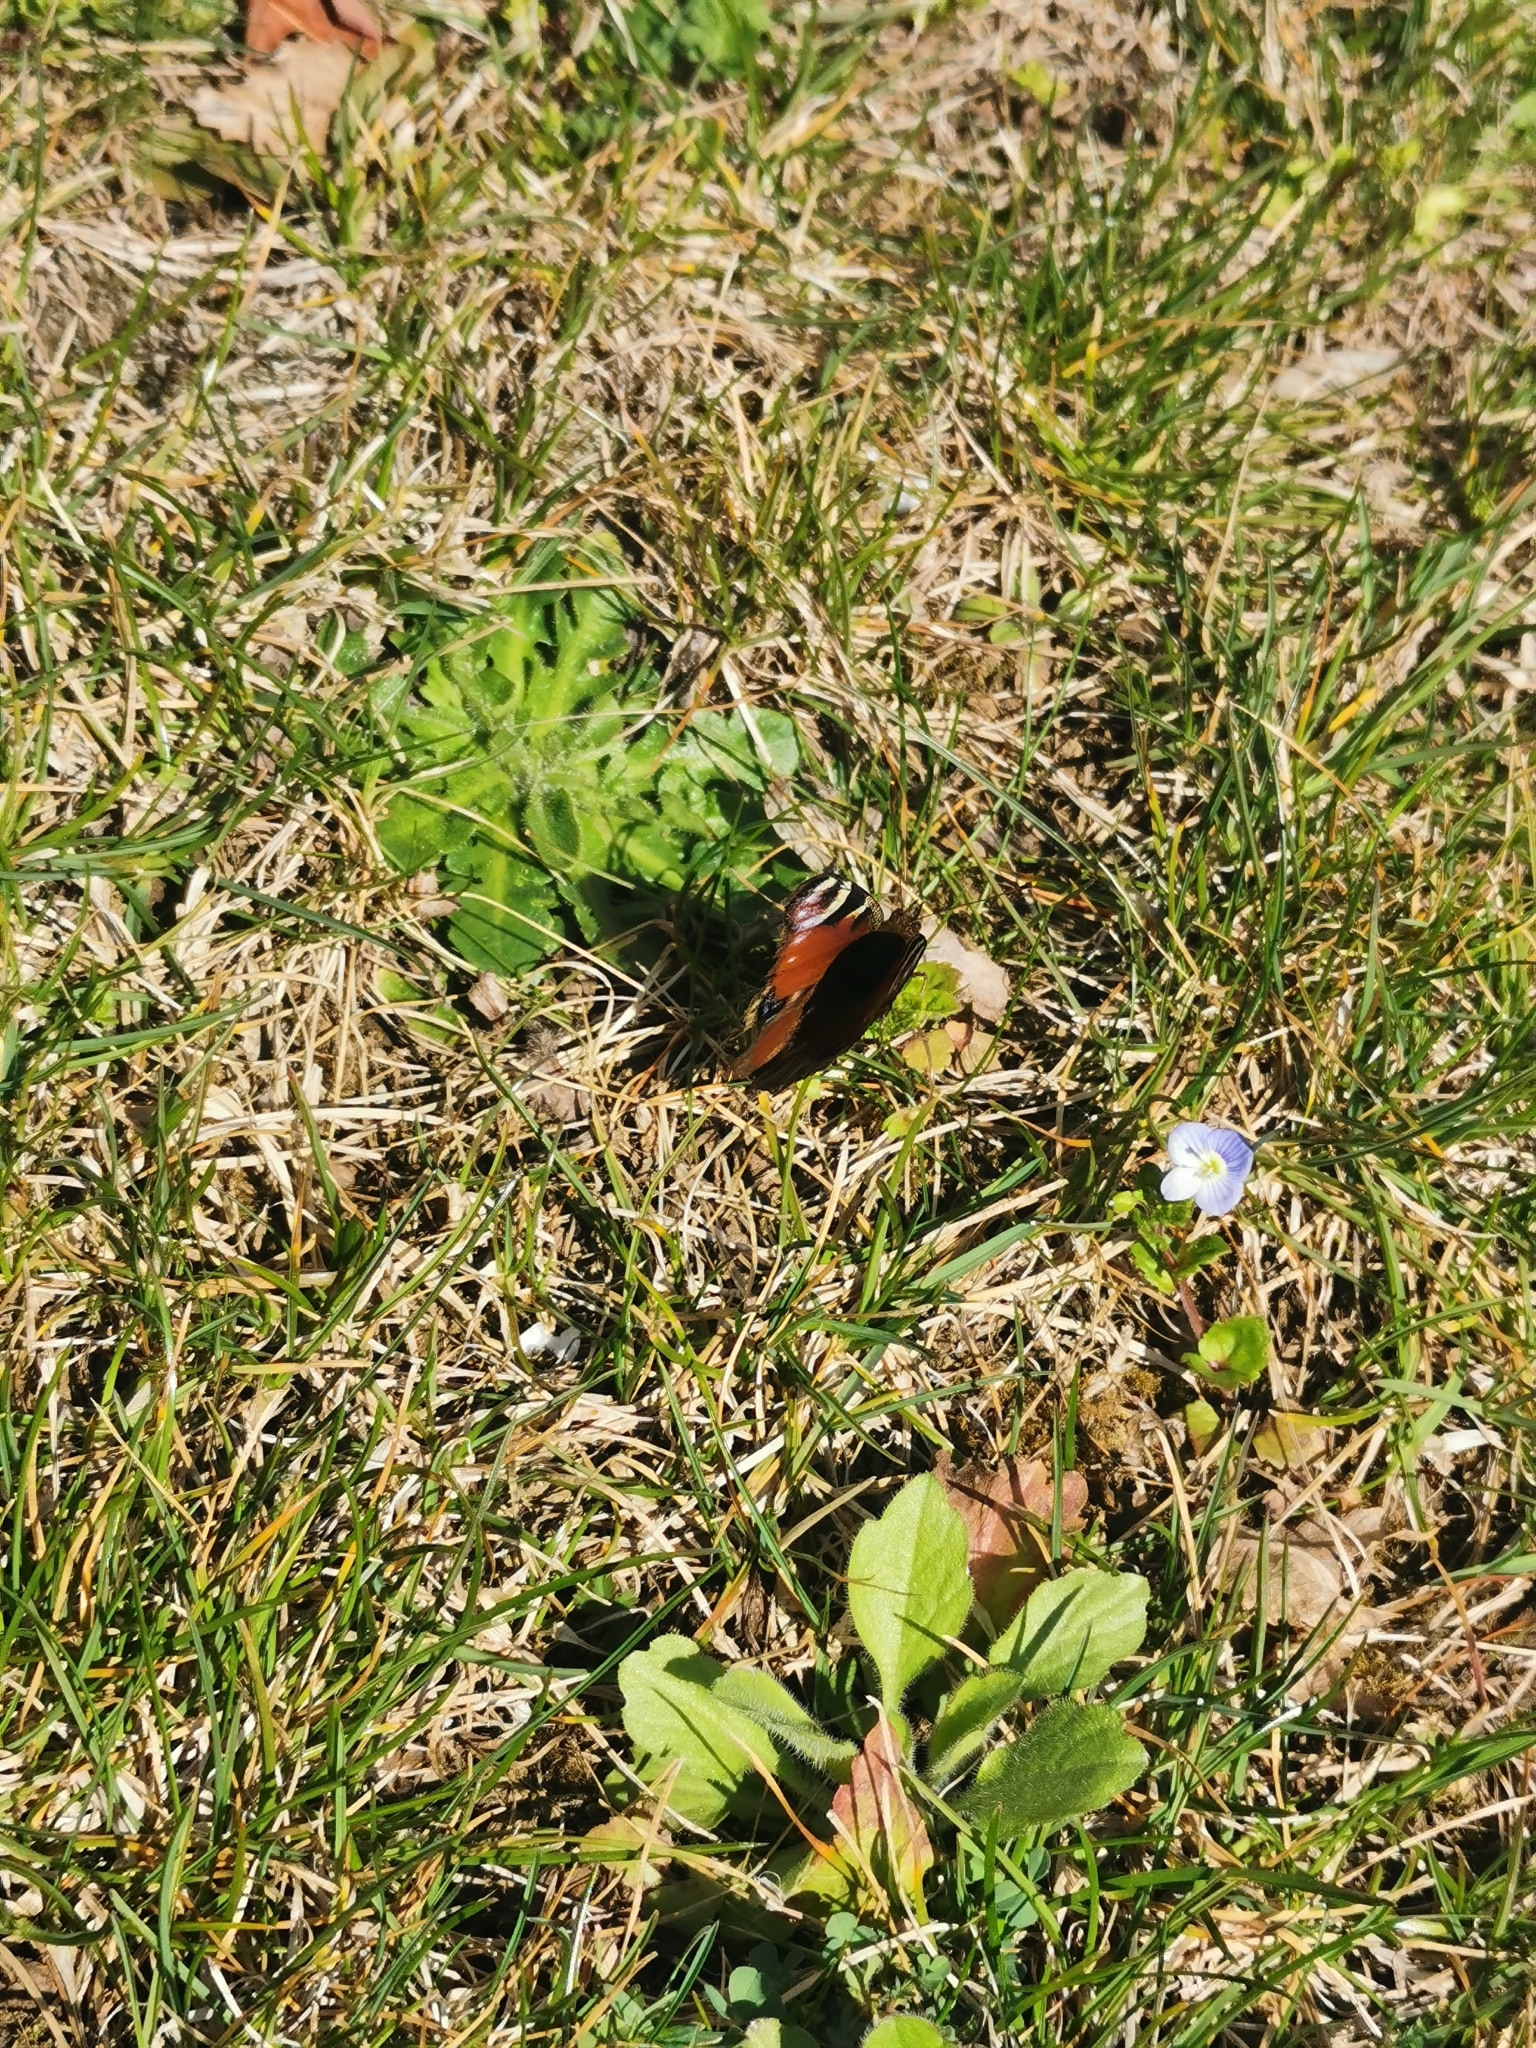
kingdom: Animalia
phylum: Arthropoda
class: Insecta
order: Lepidoptera
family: Nymphalidae
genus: Aglais
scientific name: Aglais io
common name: Peacock
